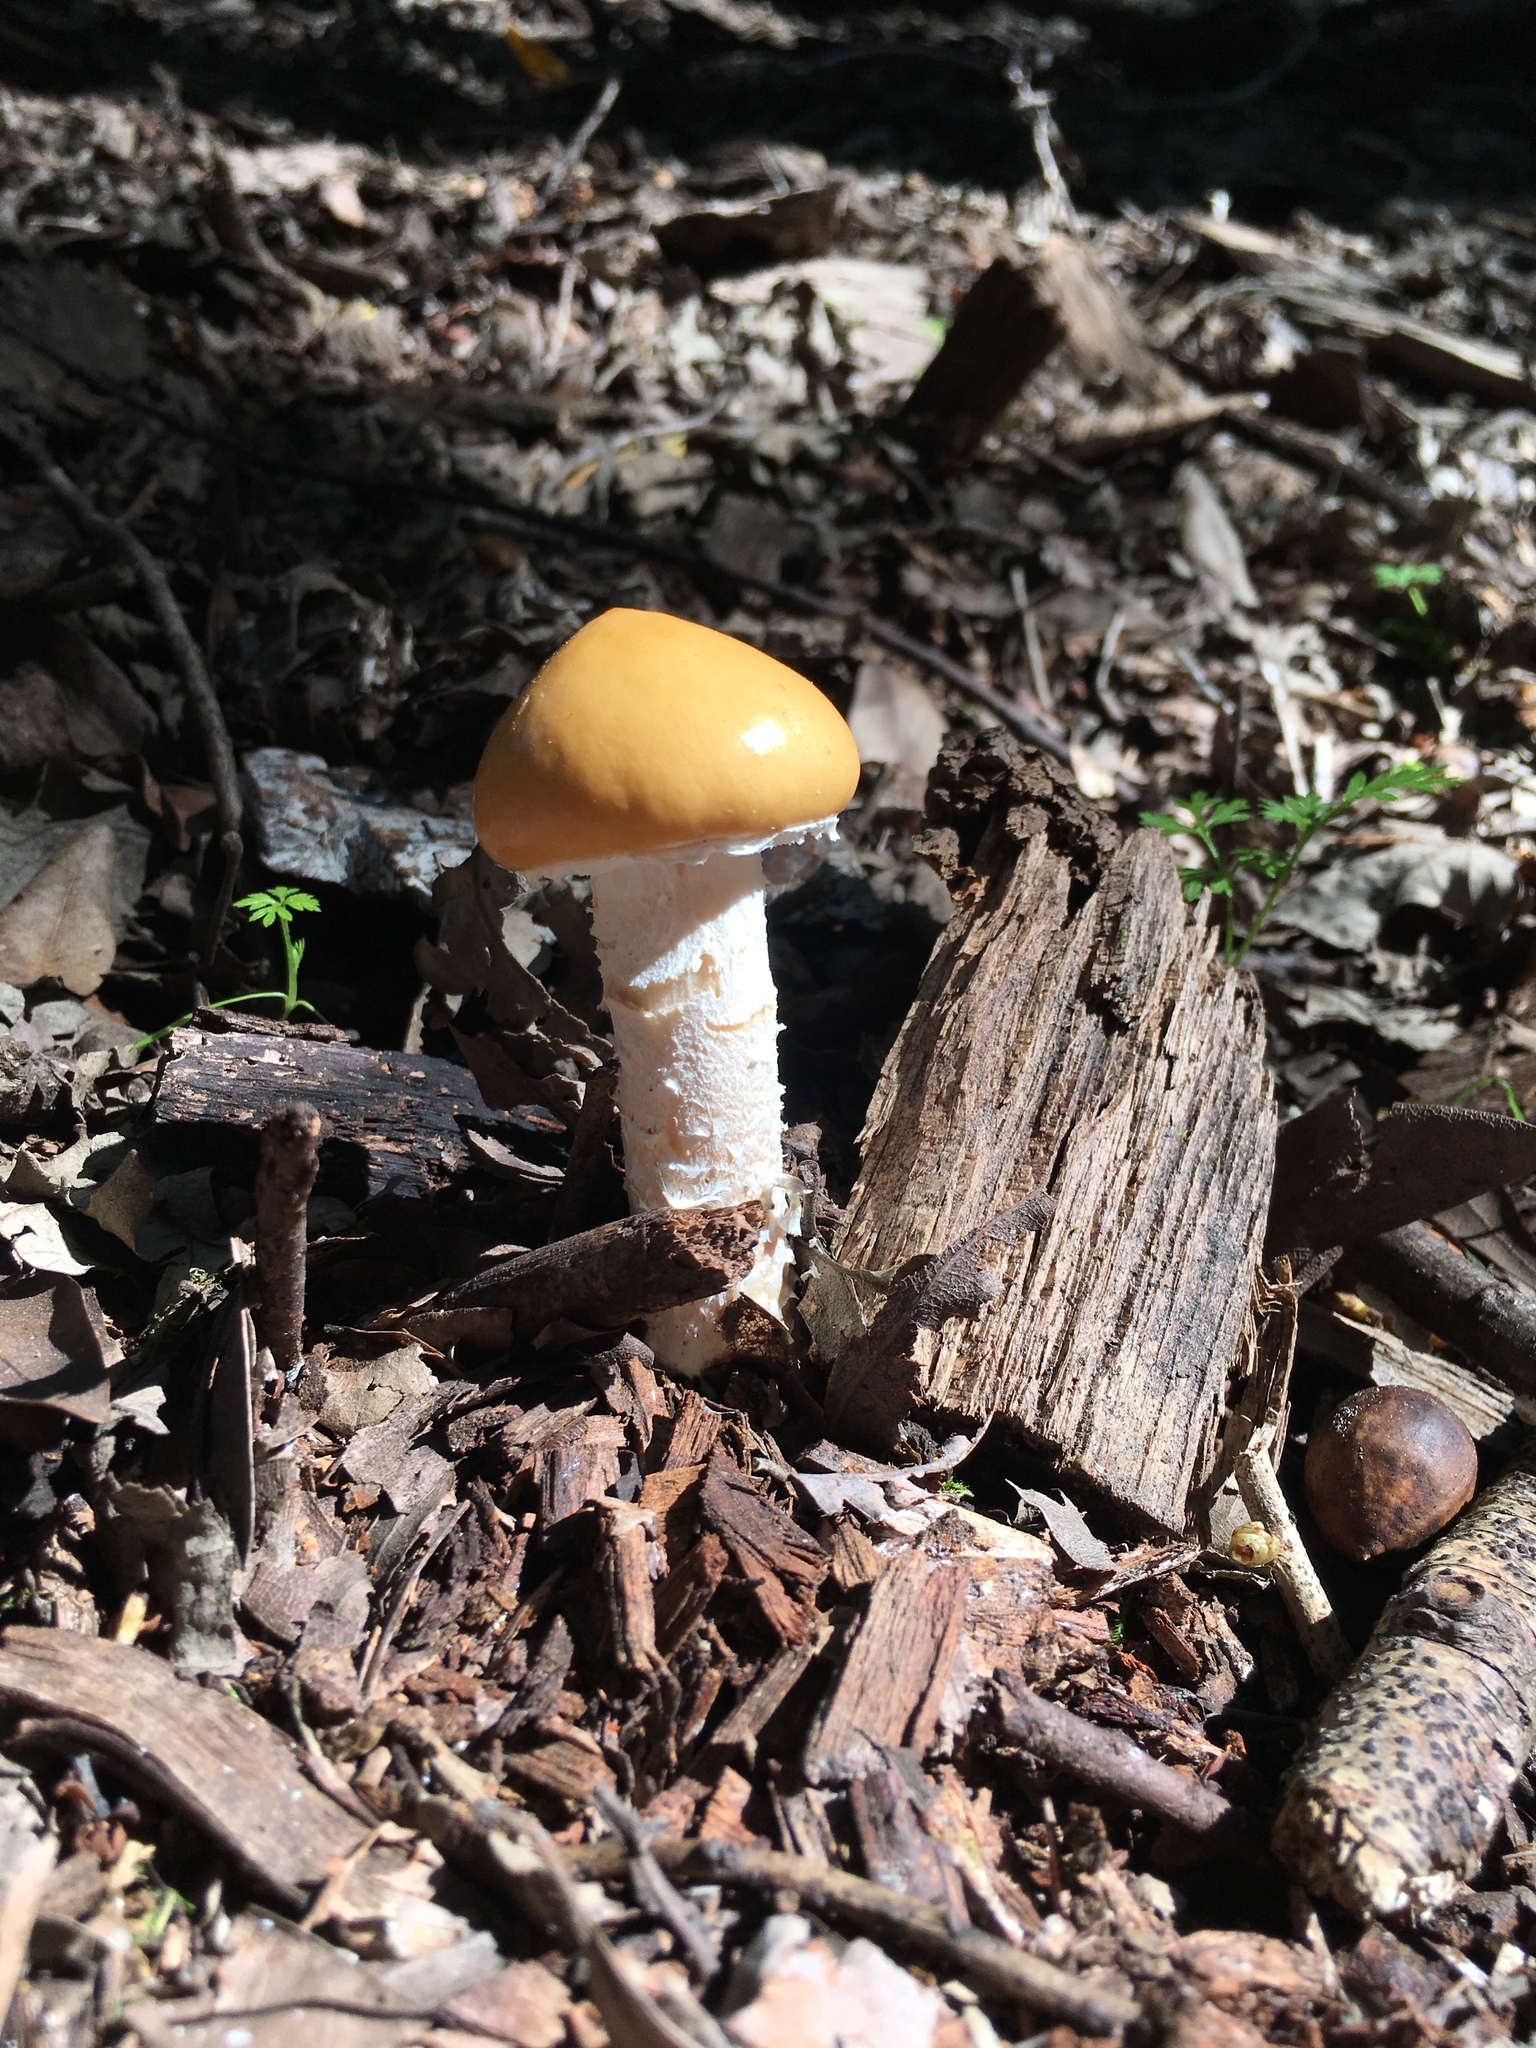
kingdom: Fungi
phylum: Basidiomycota
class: Agaricomycetes
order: Agaricales
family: Strophariaceae
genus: Stropharia
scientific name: Stropharia ambigua
